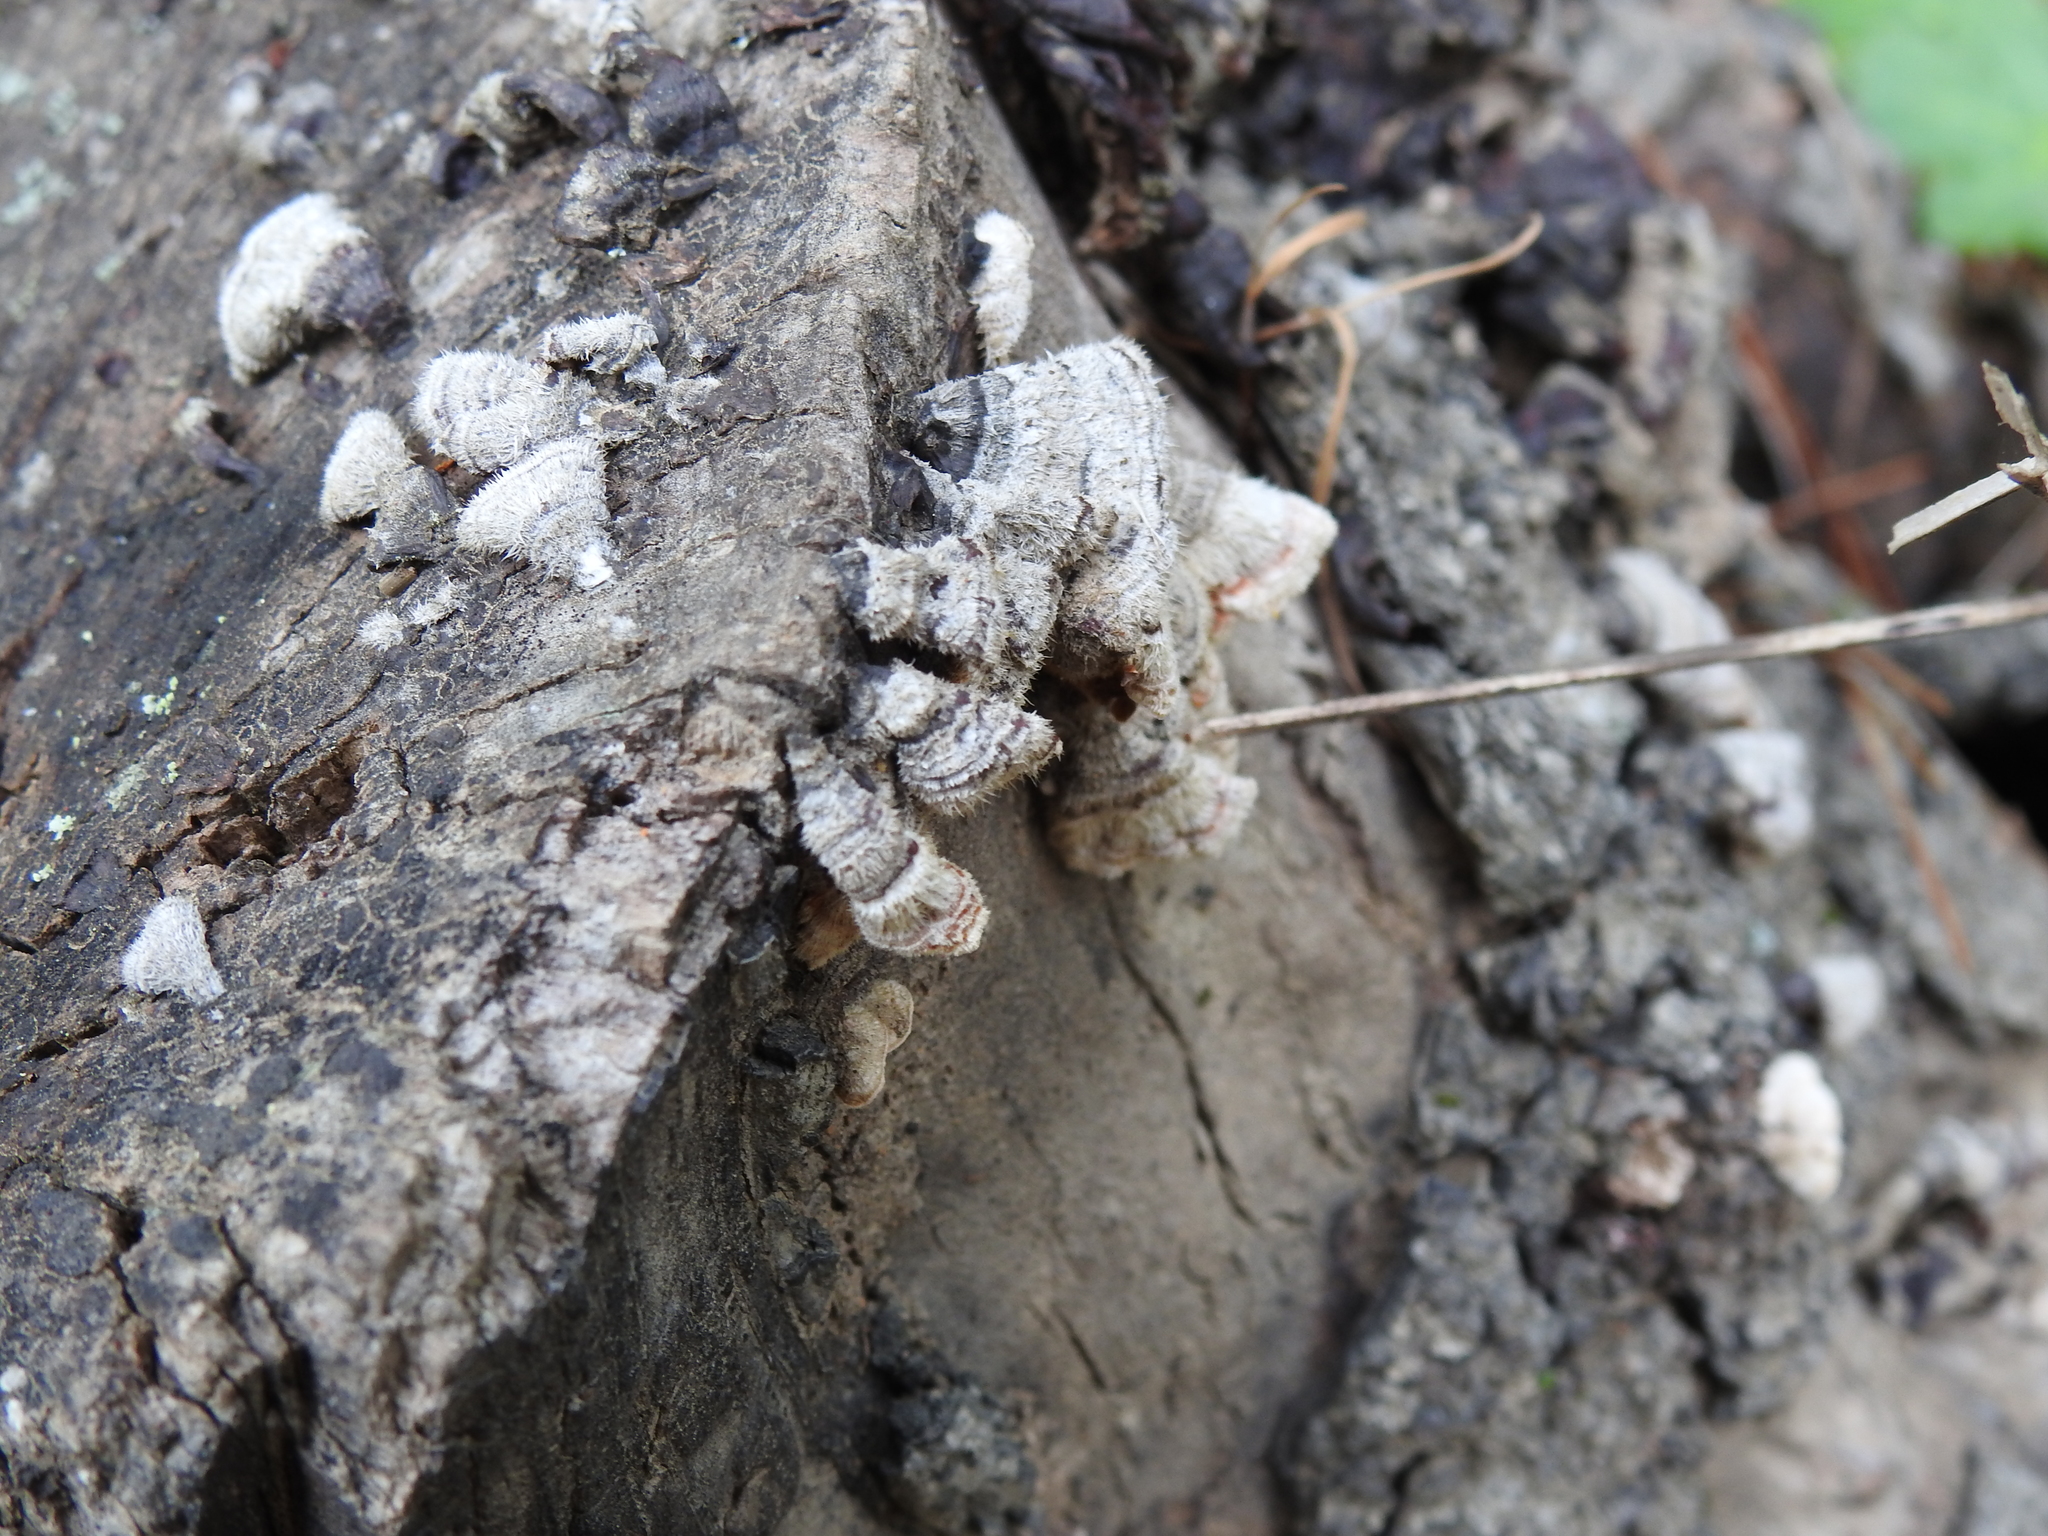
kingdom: Fungi
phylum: Basidiomycota
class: Agaricomycetes
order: Russulales
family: Stereaceae
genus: Stereum
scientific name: Stereum hirsutum
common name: Hairy curtain crust
